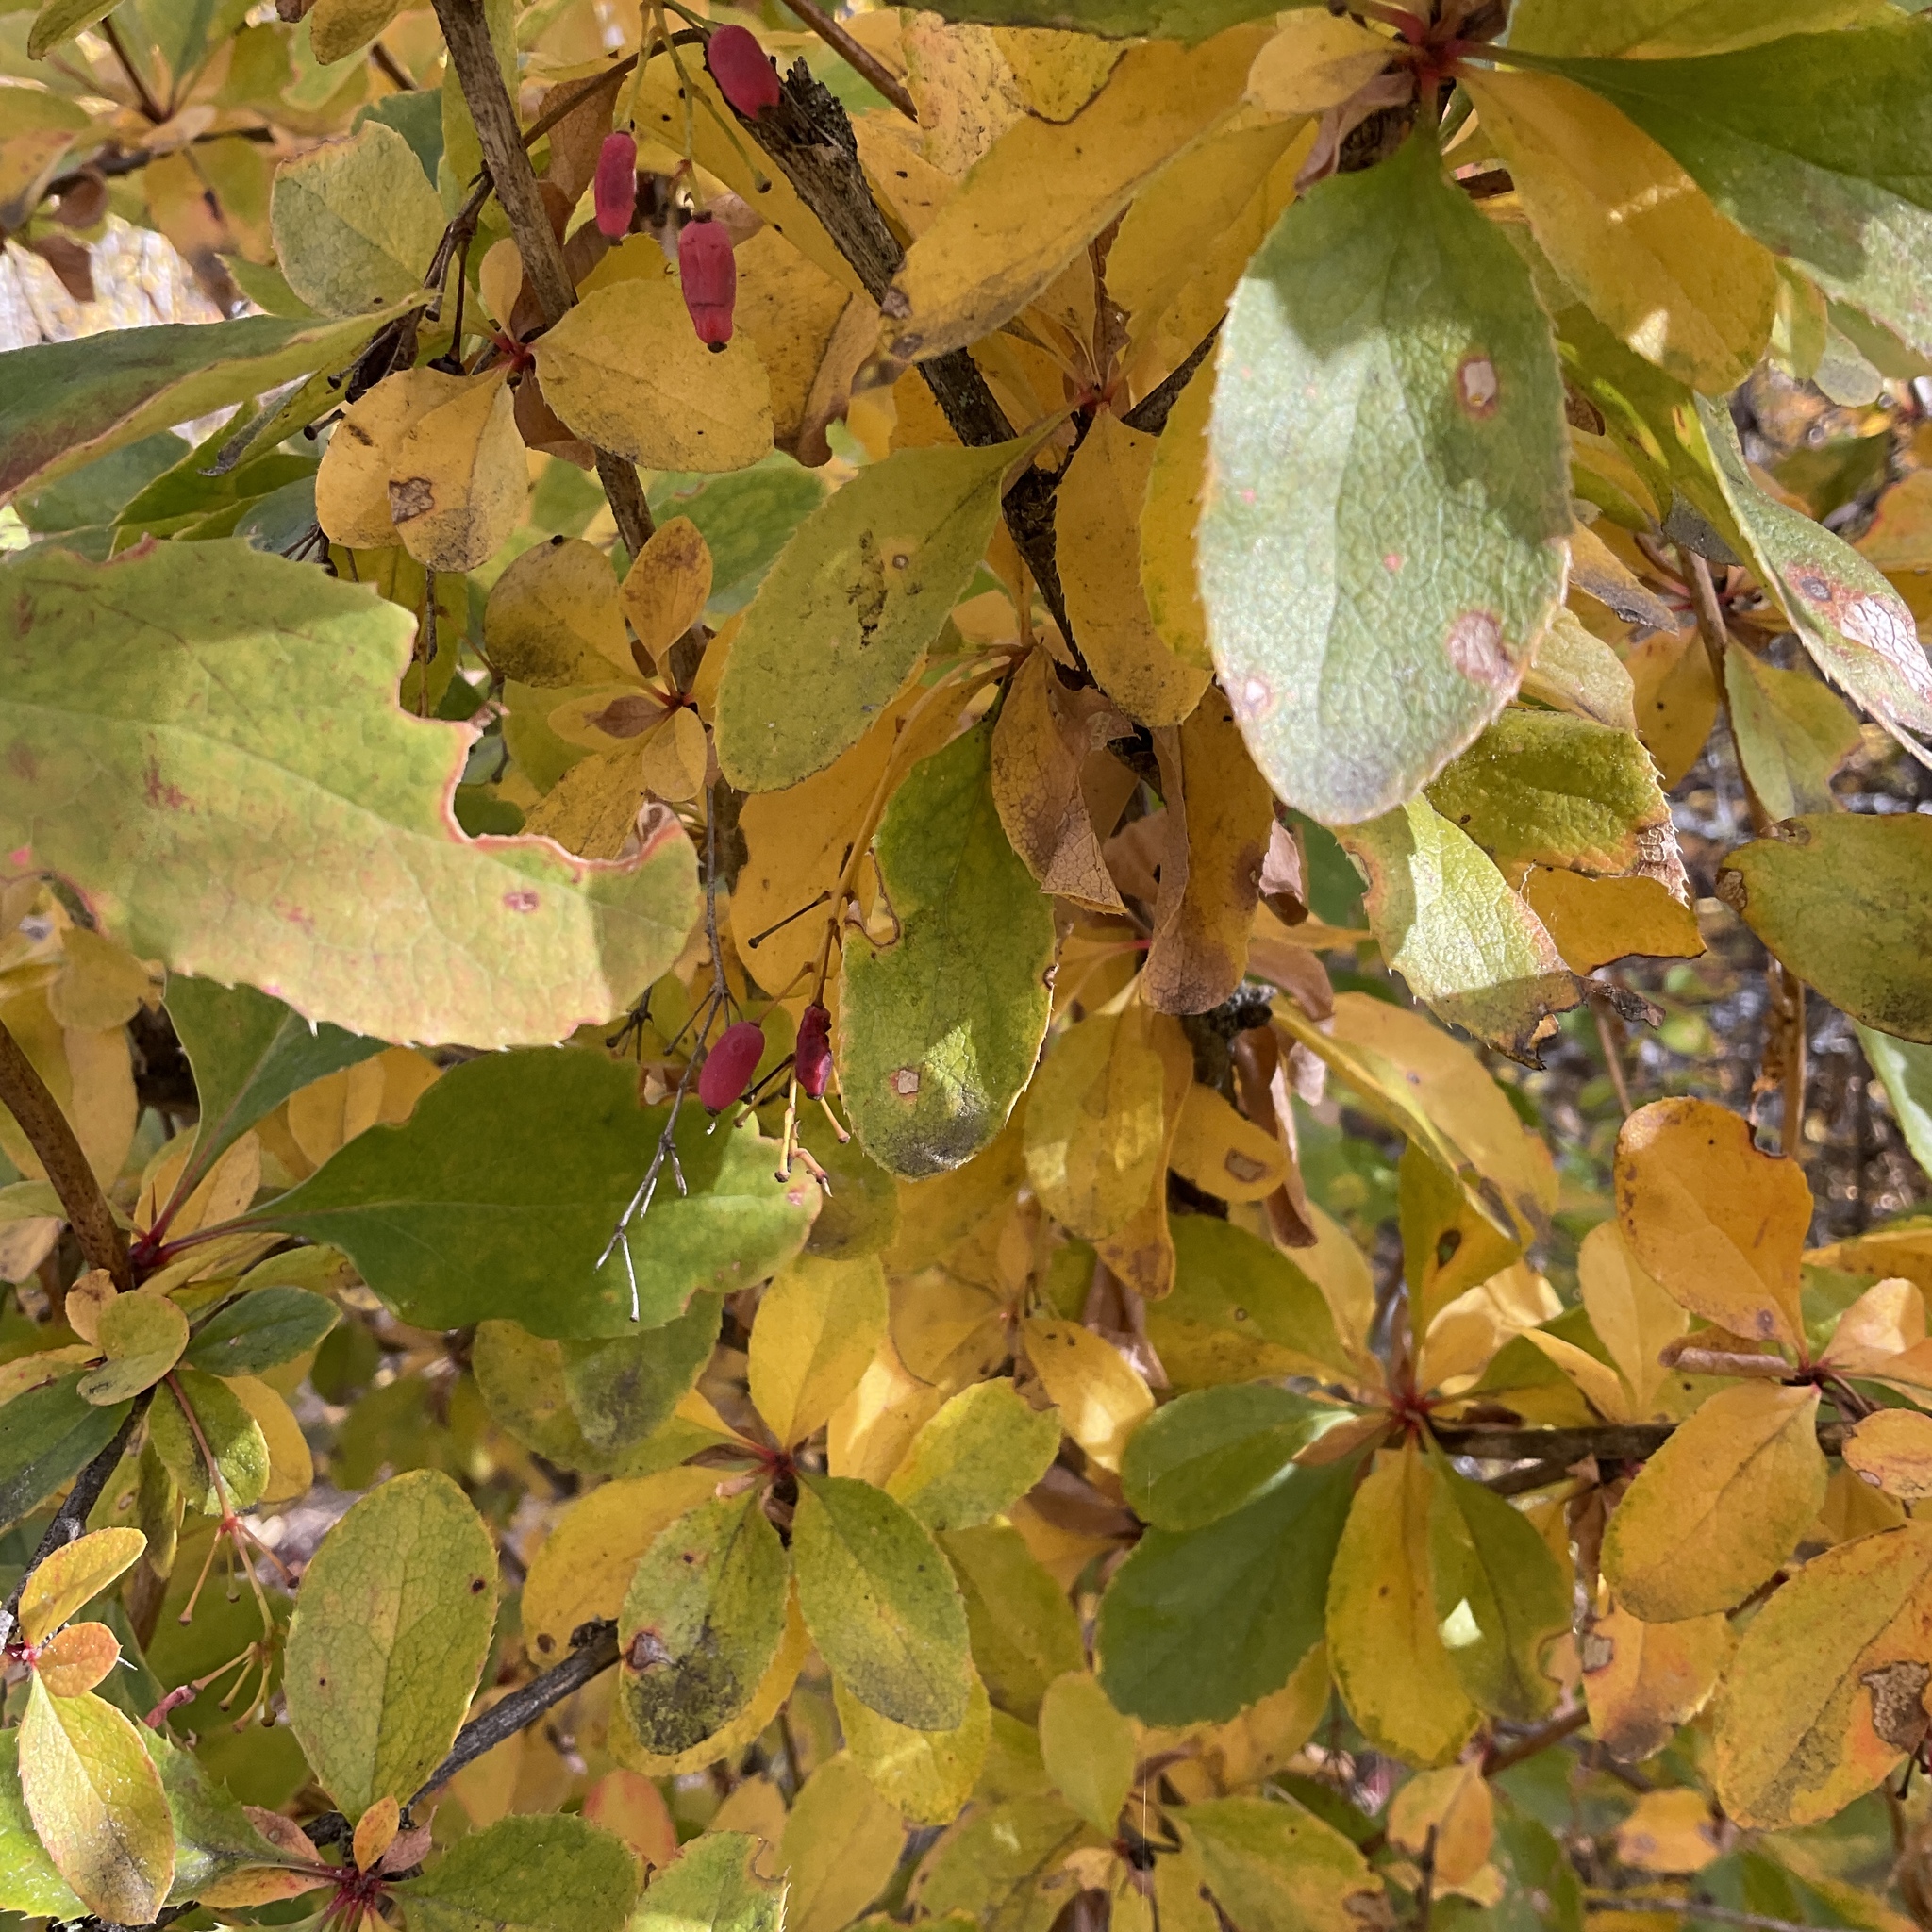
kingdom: Plantae
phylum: Tracheophyta
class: Magnoliopsida
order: Ranunculales
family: Berberidaceae
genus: Berberis
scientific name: Berberis vulgaris
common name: Barberry
